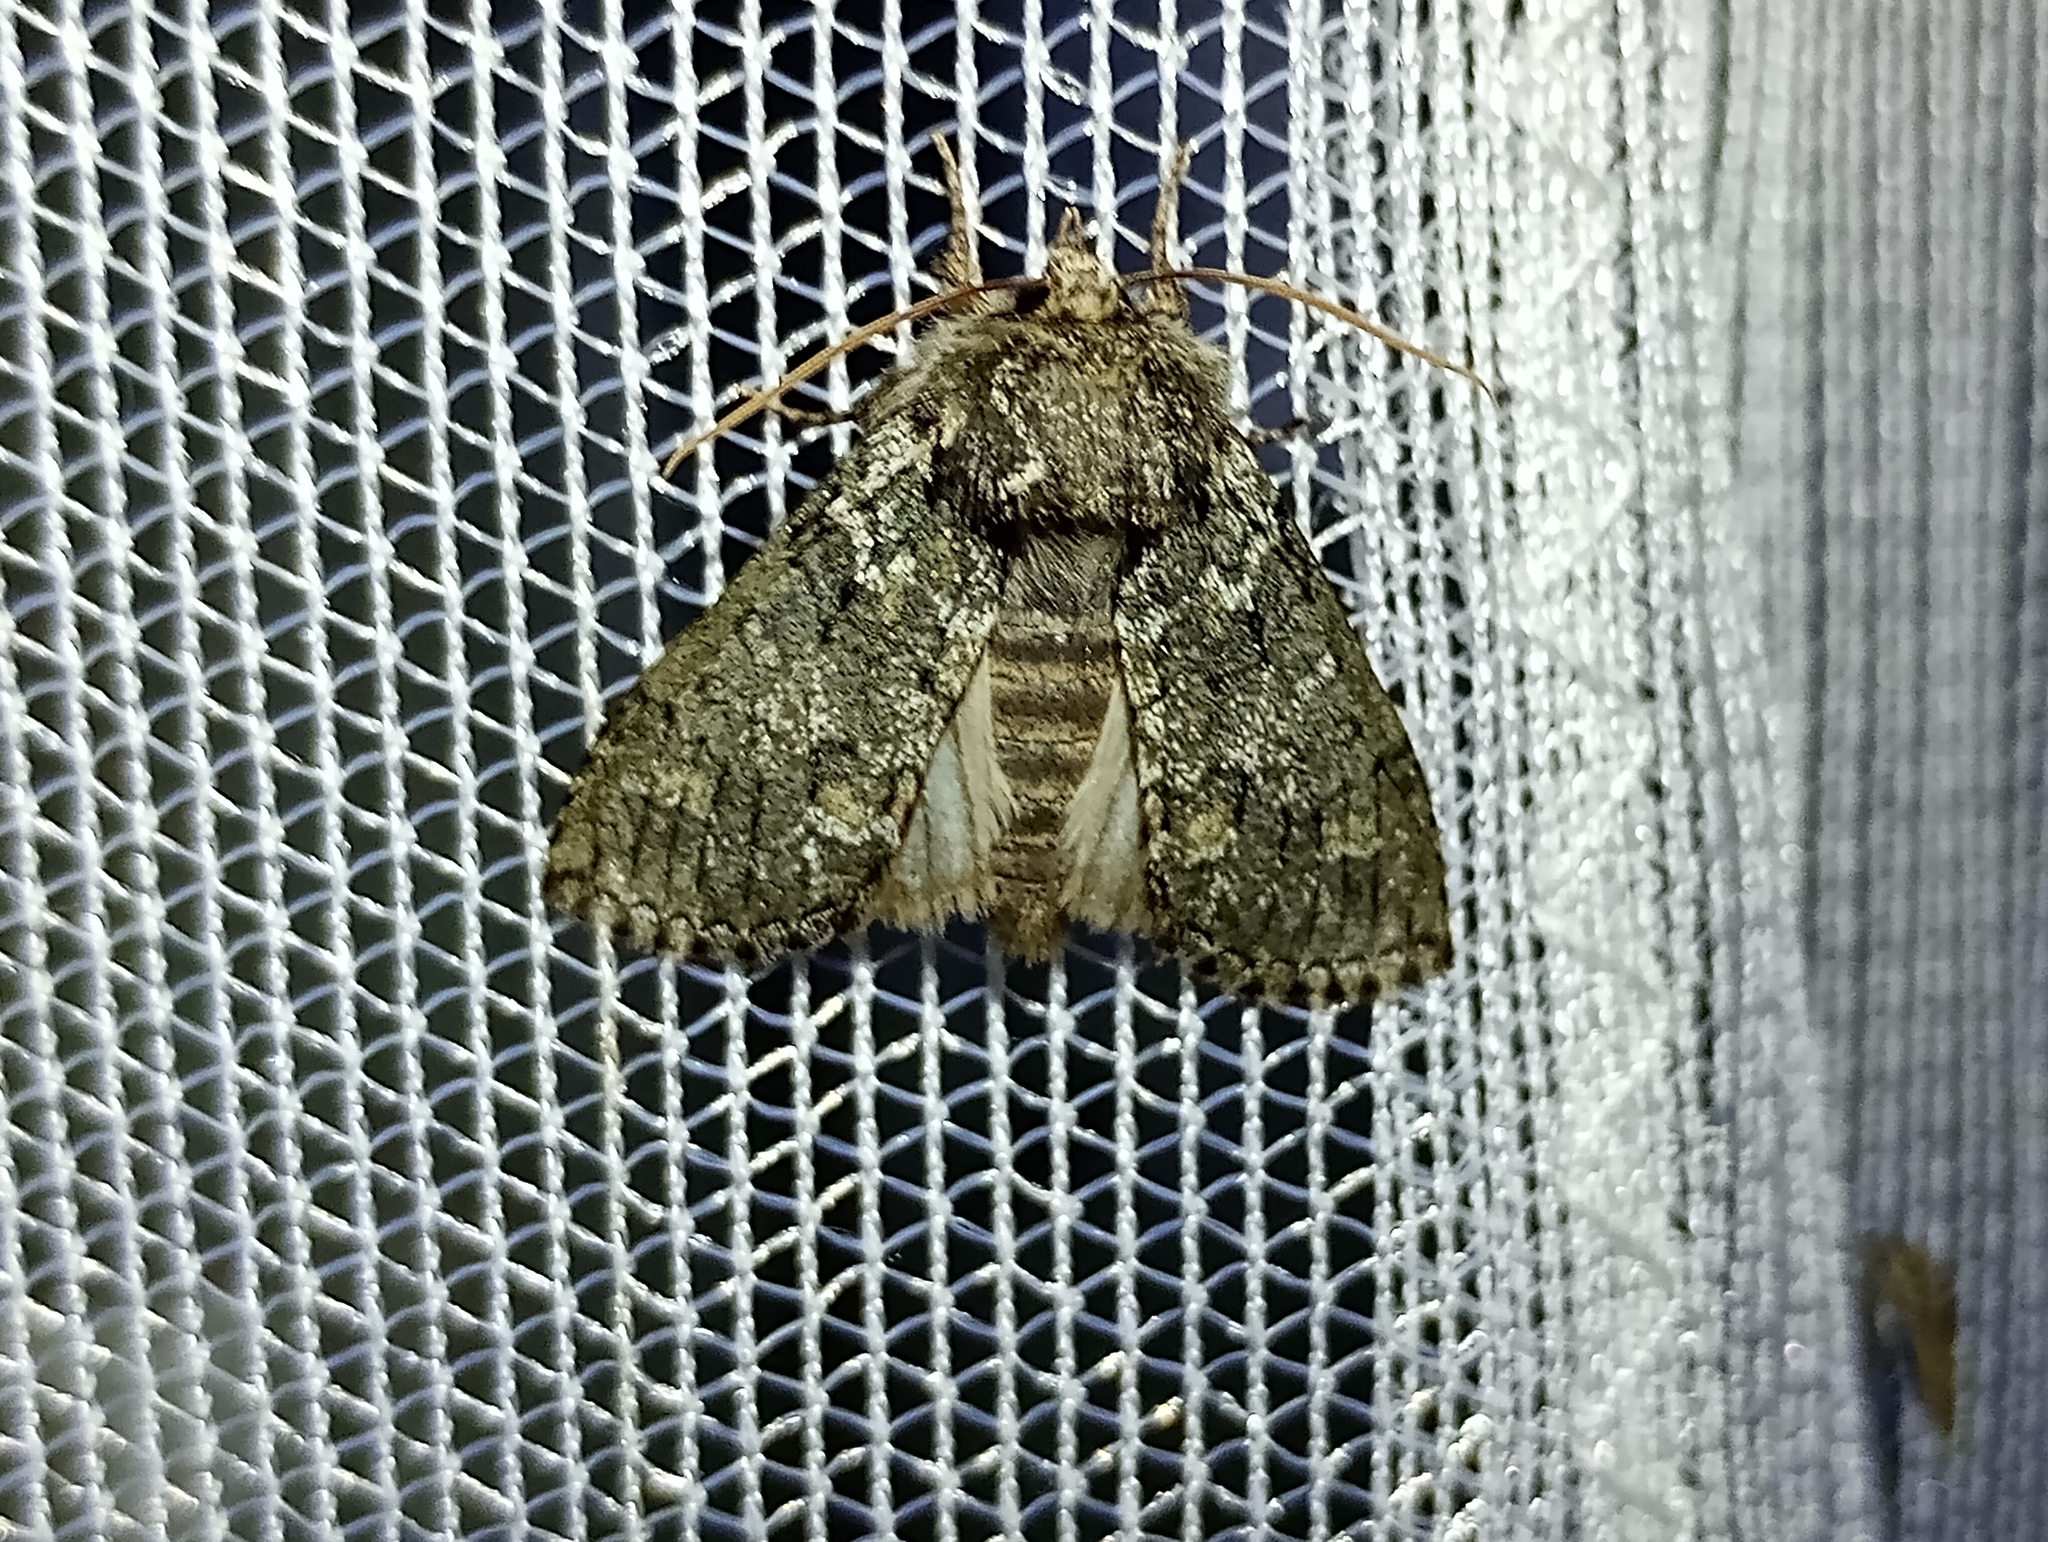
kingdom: Animalia
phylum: Arthropoda
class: Insecta
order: Lepidoptera
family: Drepanidae
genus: Polyploca
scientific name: Polyploca ridens
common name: Frosted green
